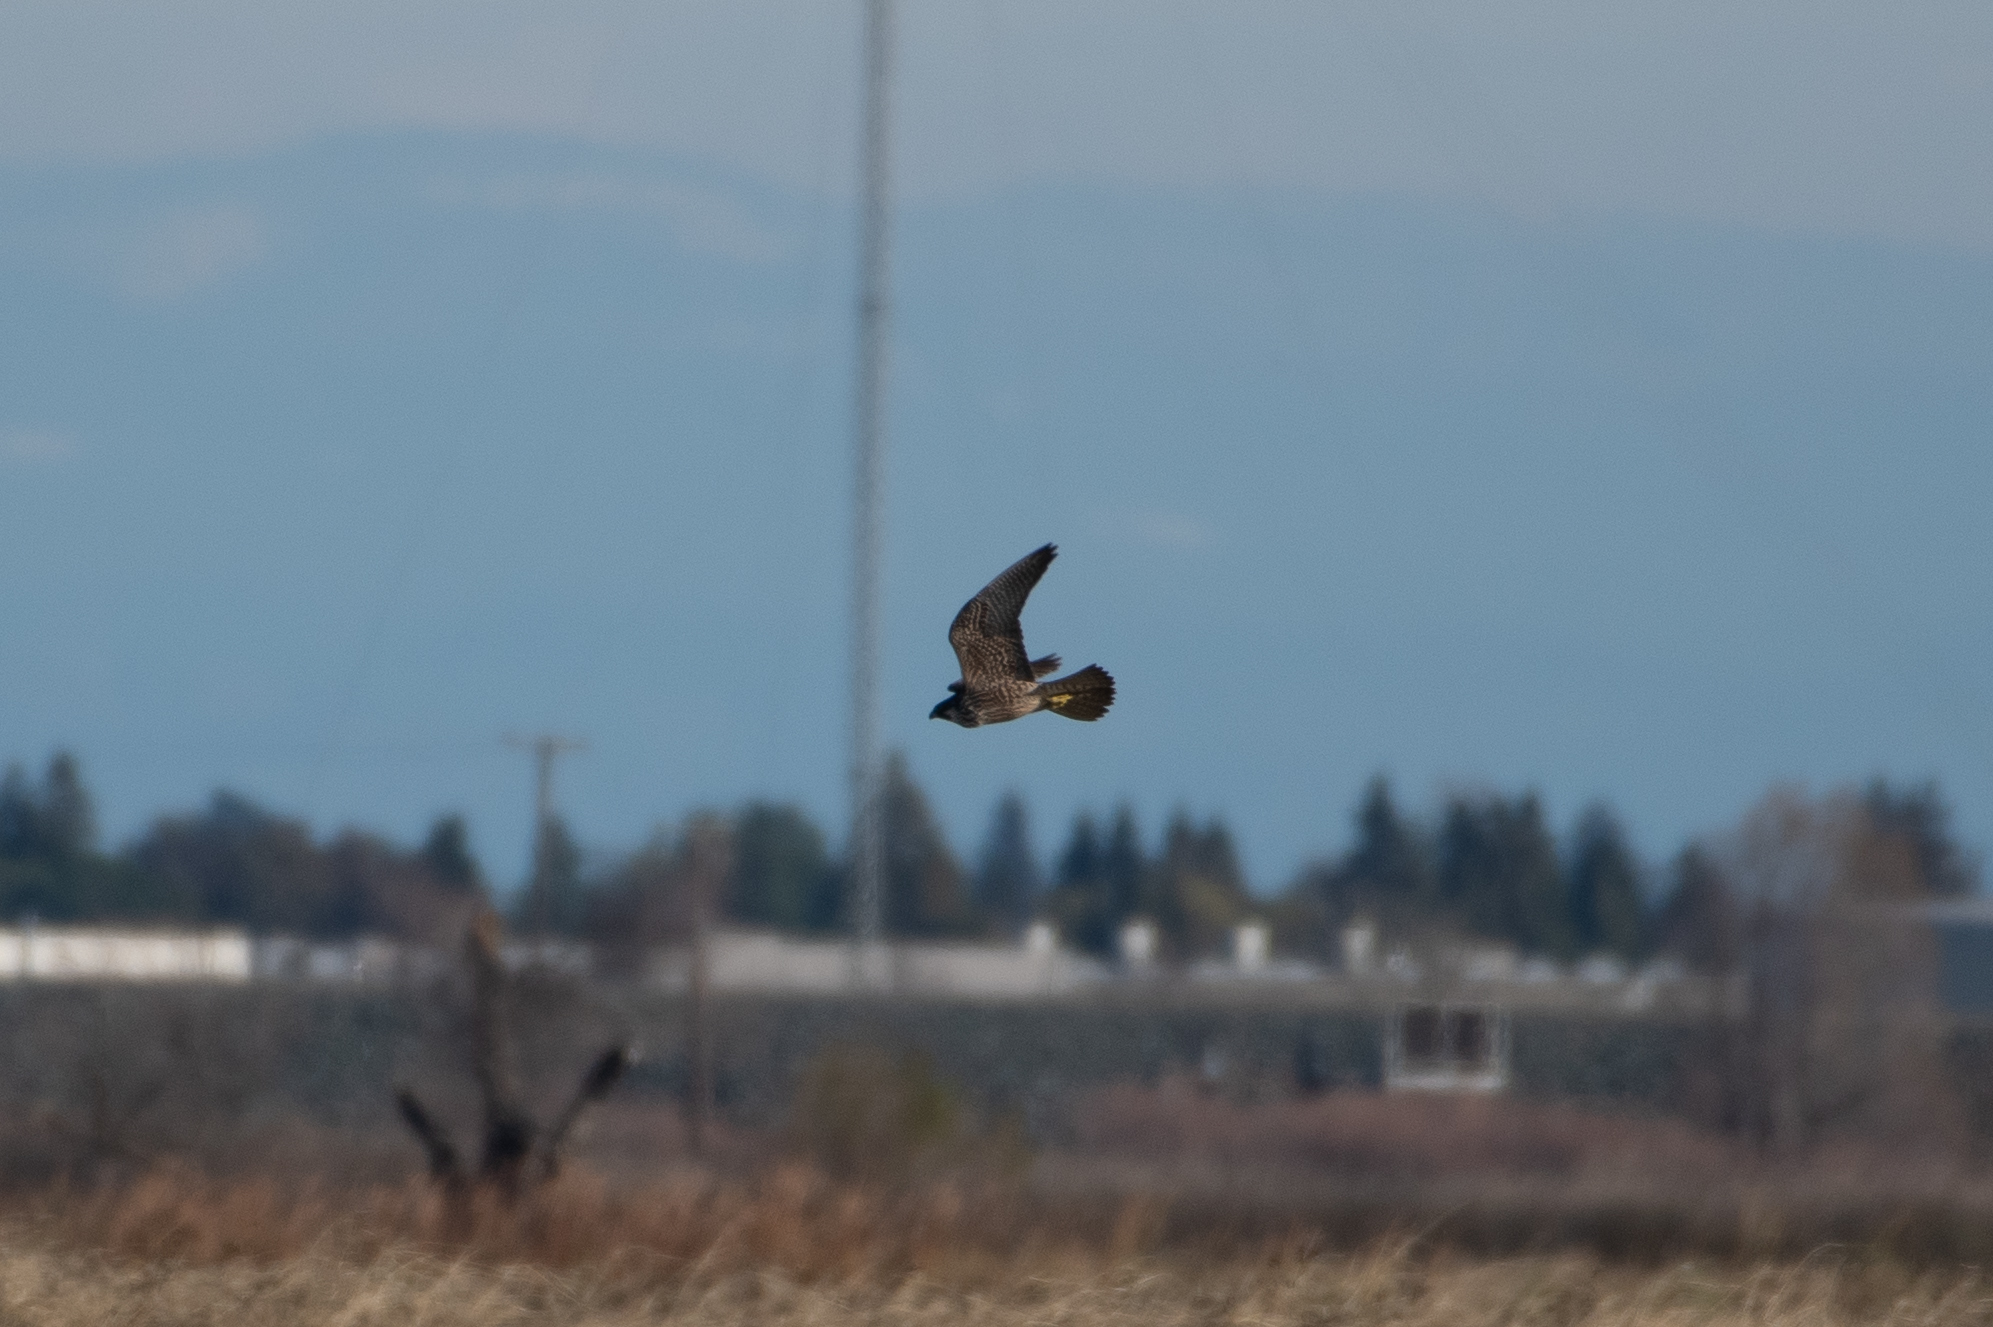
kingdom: Animalia
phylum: Chordata
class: Aves
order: Falconiformes
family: Falconidae
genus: Falco
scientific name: Falco peregrinus
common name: Peregrine falcon
